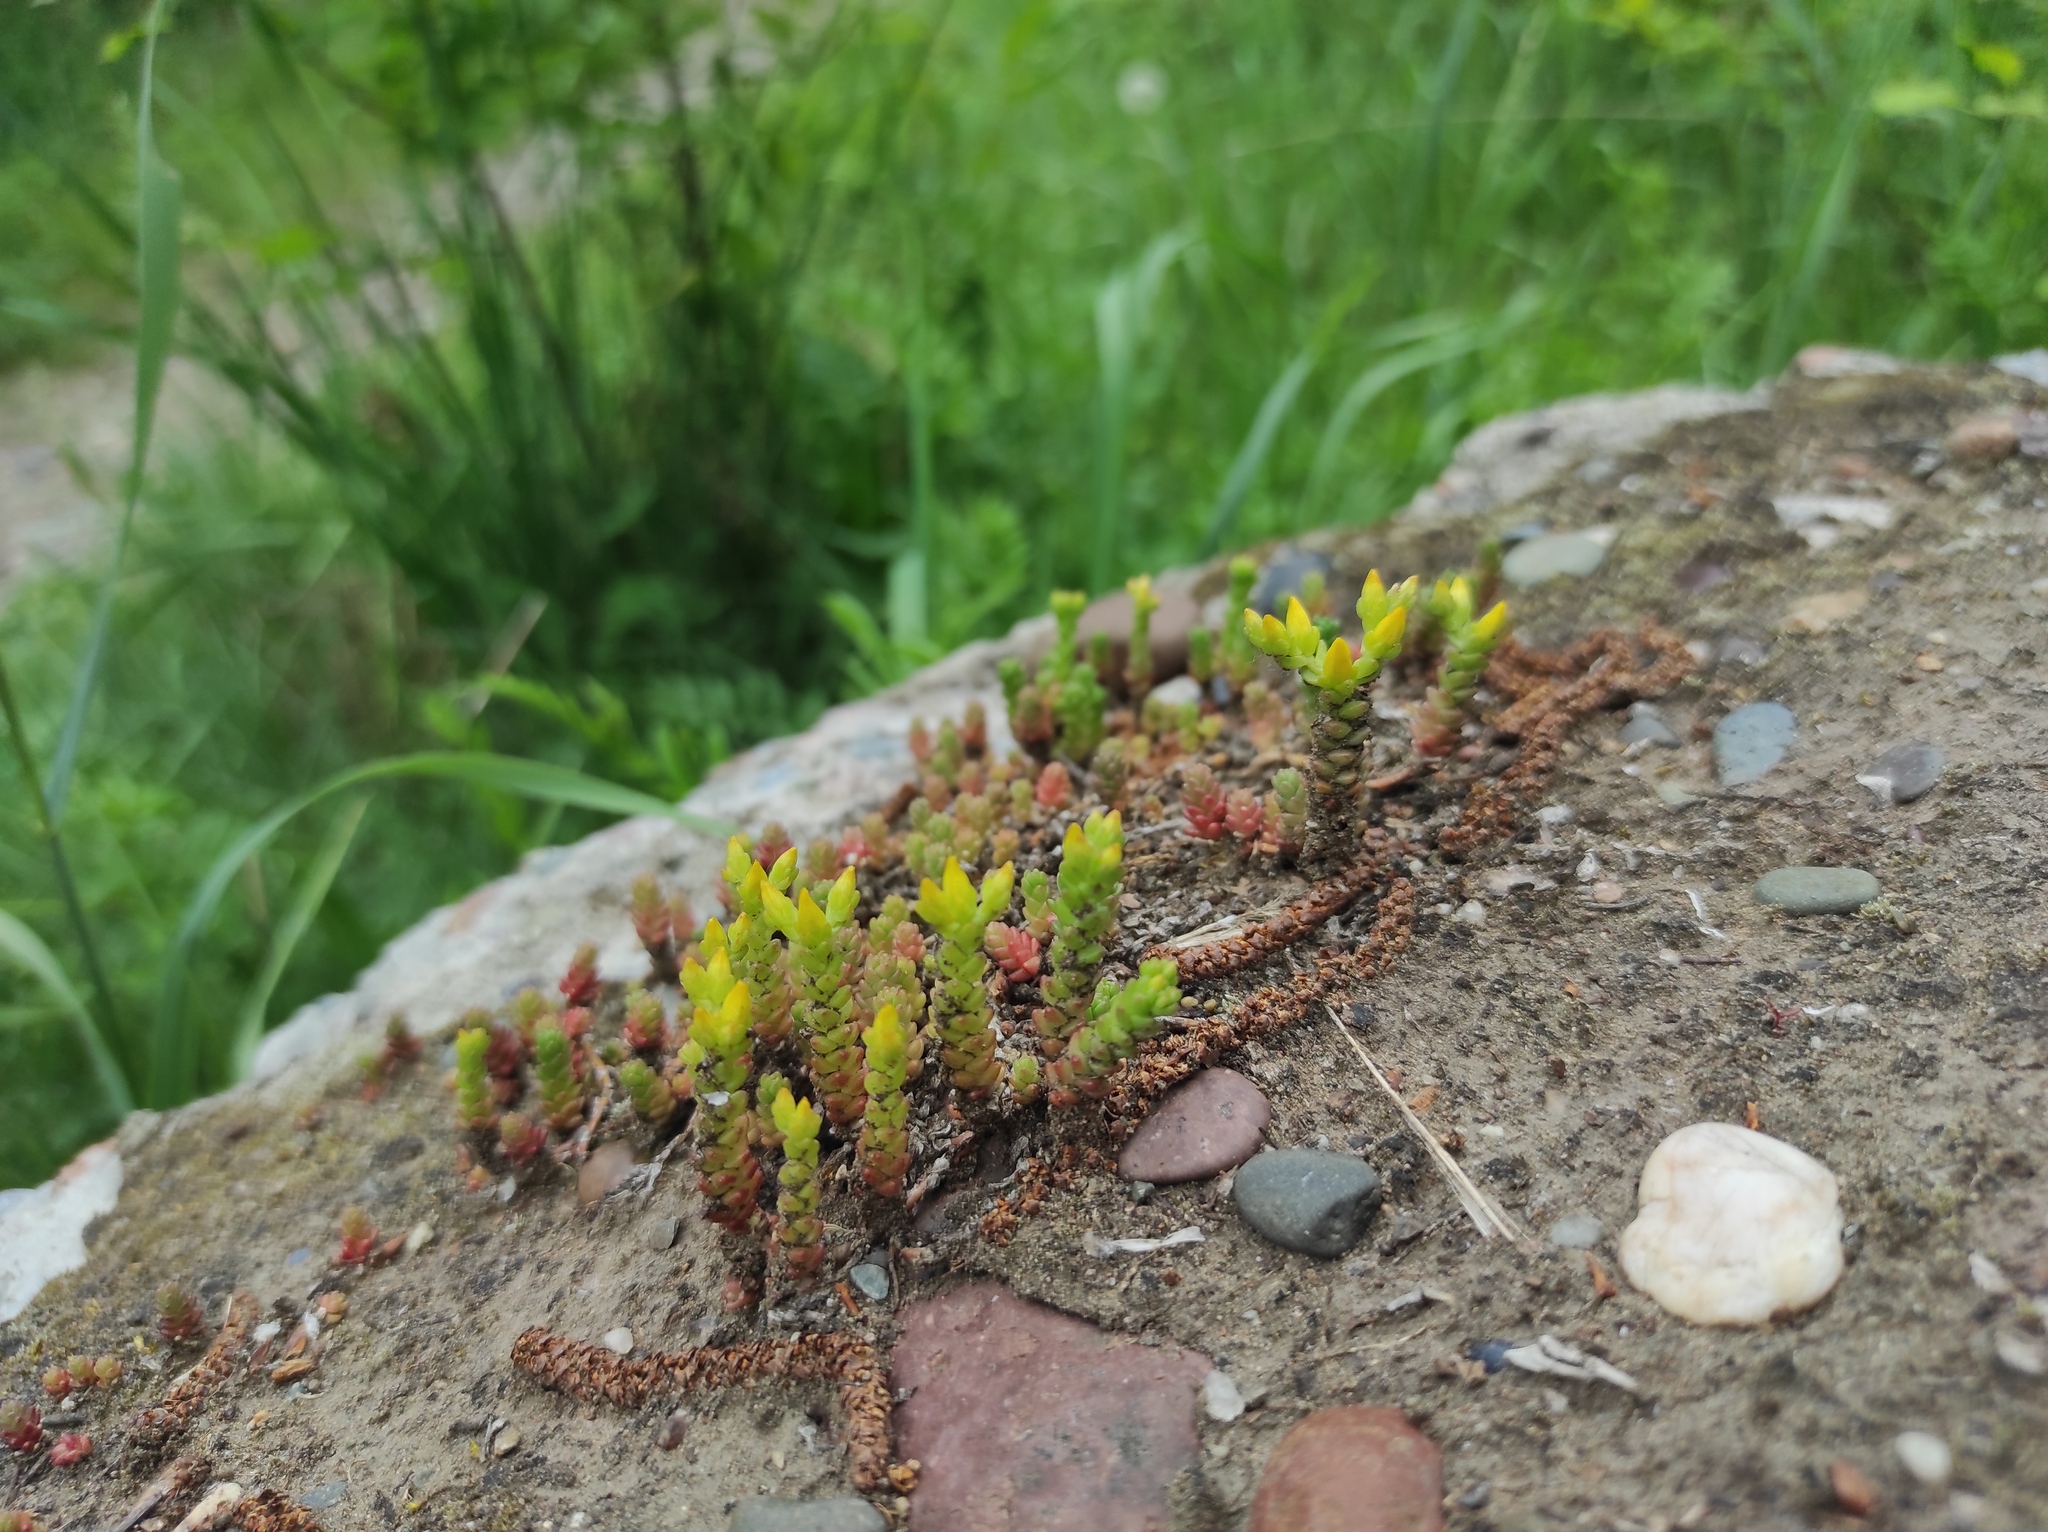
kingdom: Plantae
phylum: Tracheophyta
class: Magnoliopsida
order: Saxifragales
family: Crassulaceae
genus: Sedum
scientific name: Sedum acre
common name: Biting stonecrop
